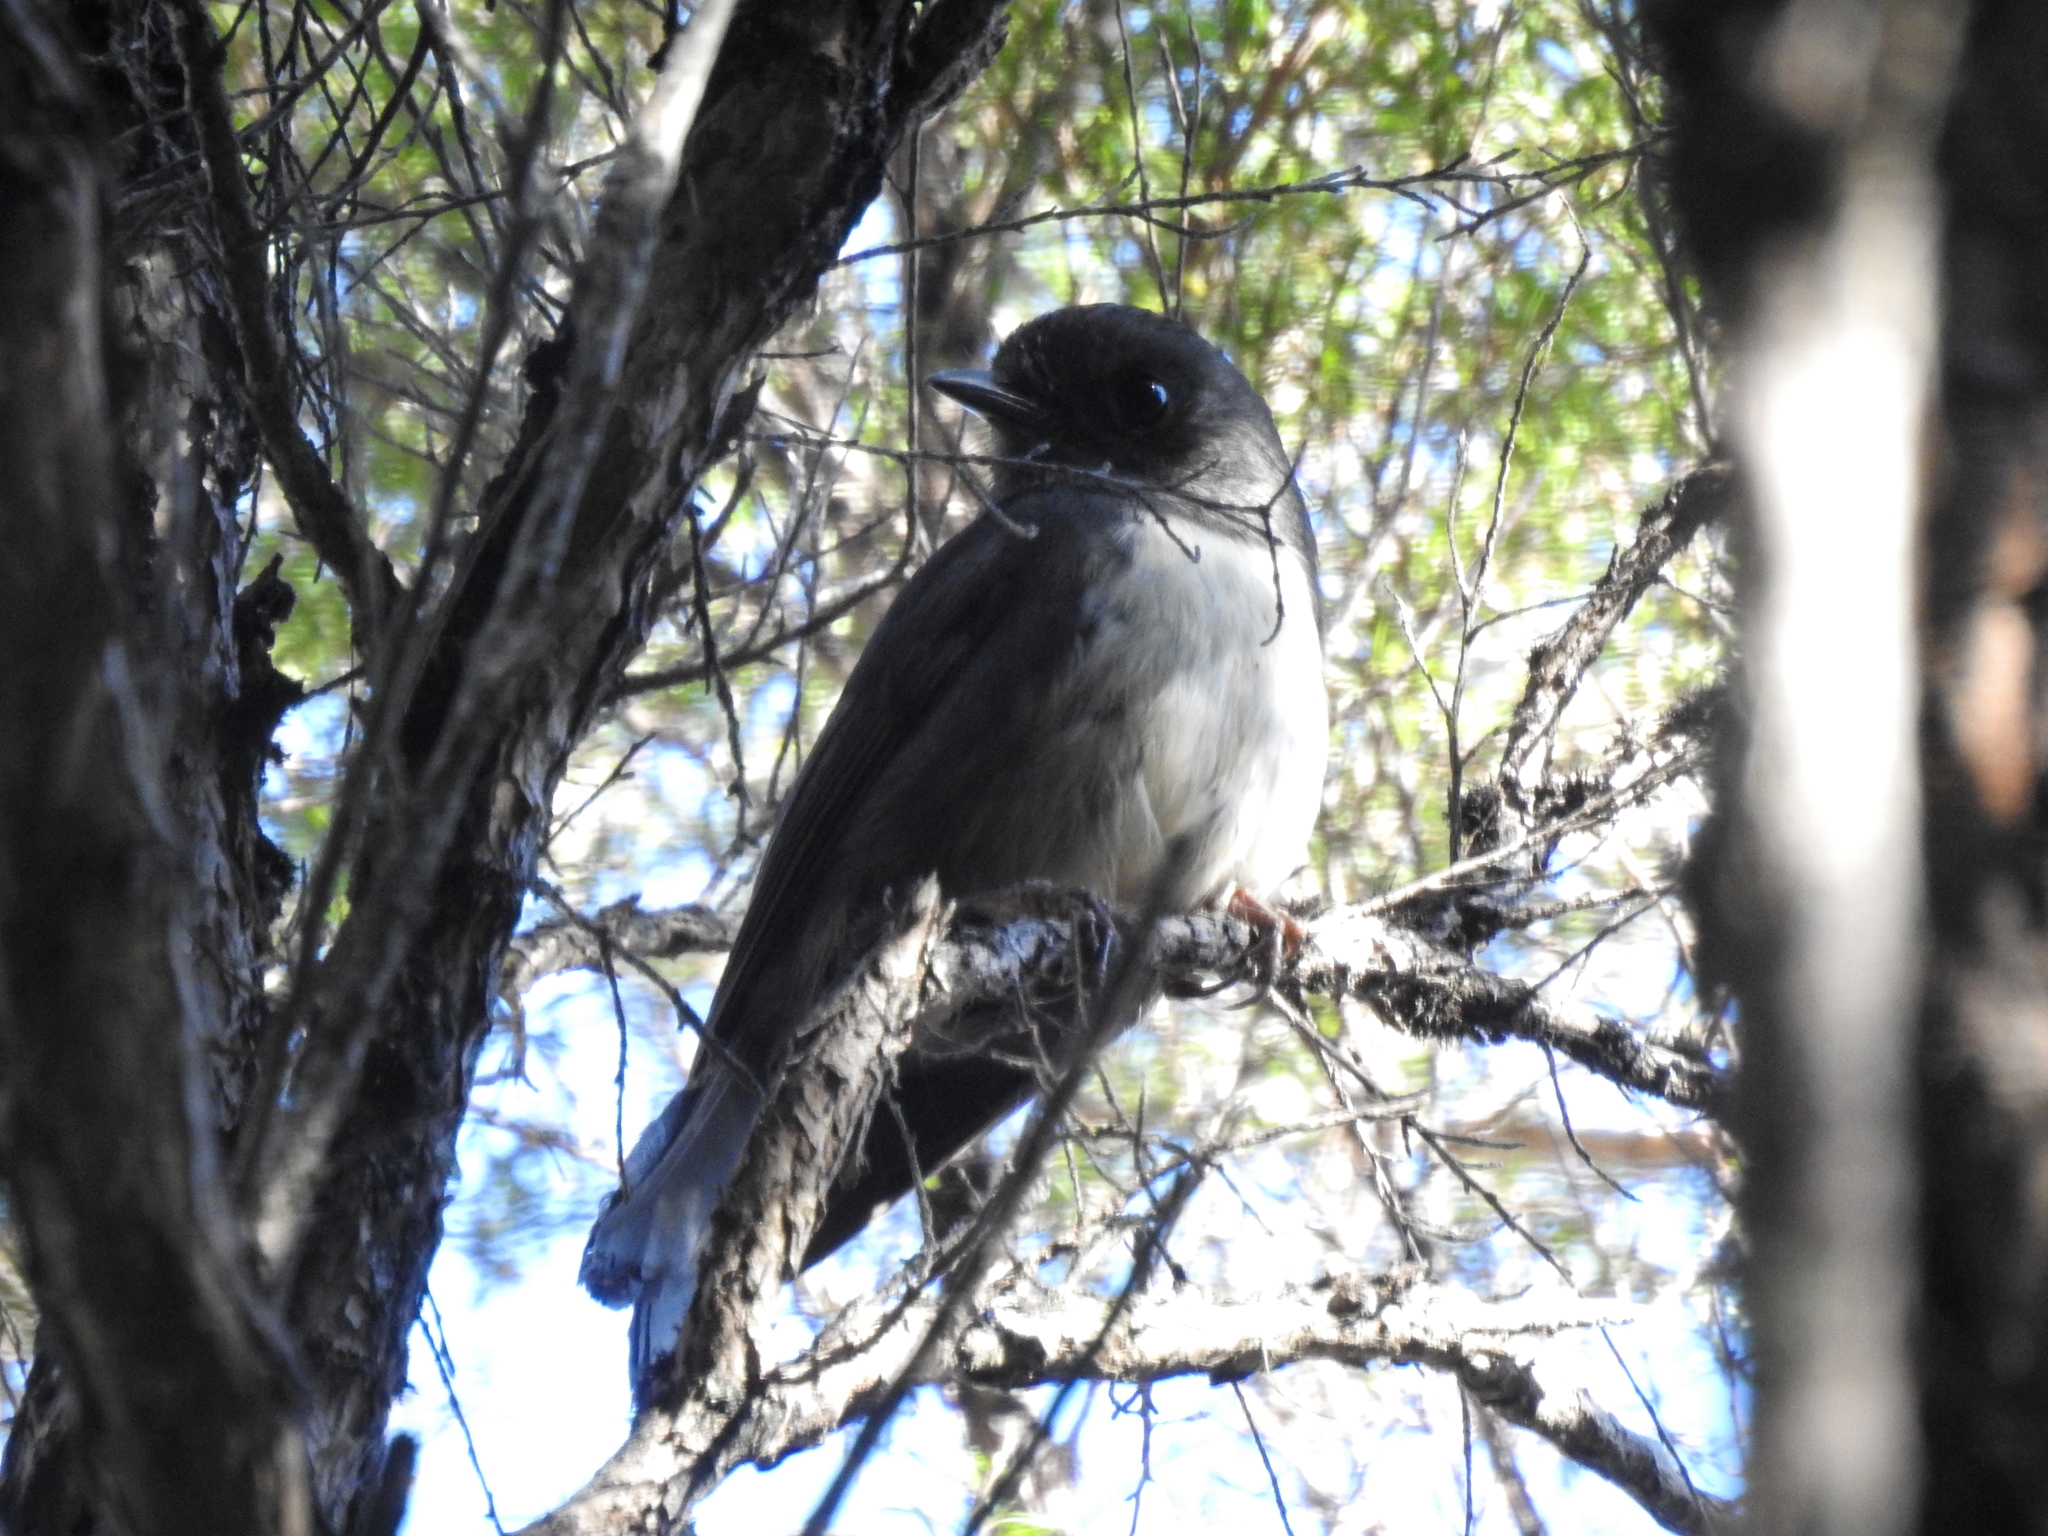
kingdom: Animalia
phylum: Chordata
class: Aves
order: Passeriformes
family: Petroicidae
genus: Petroica
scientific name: Petroica australis
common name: New zealand robin
